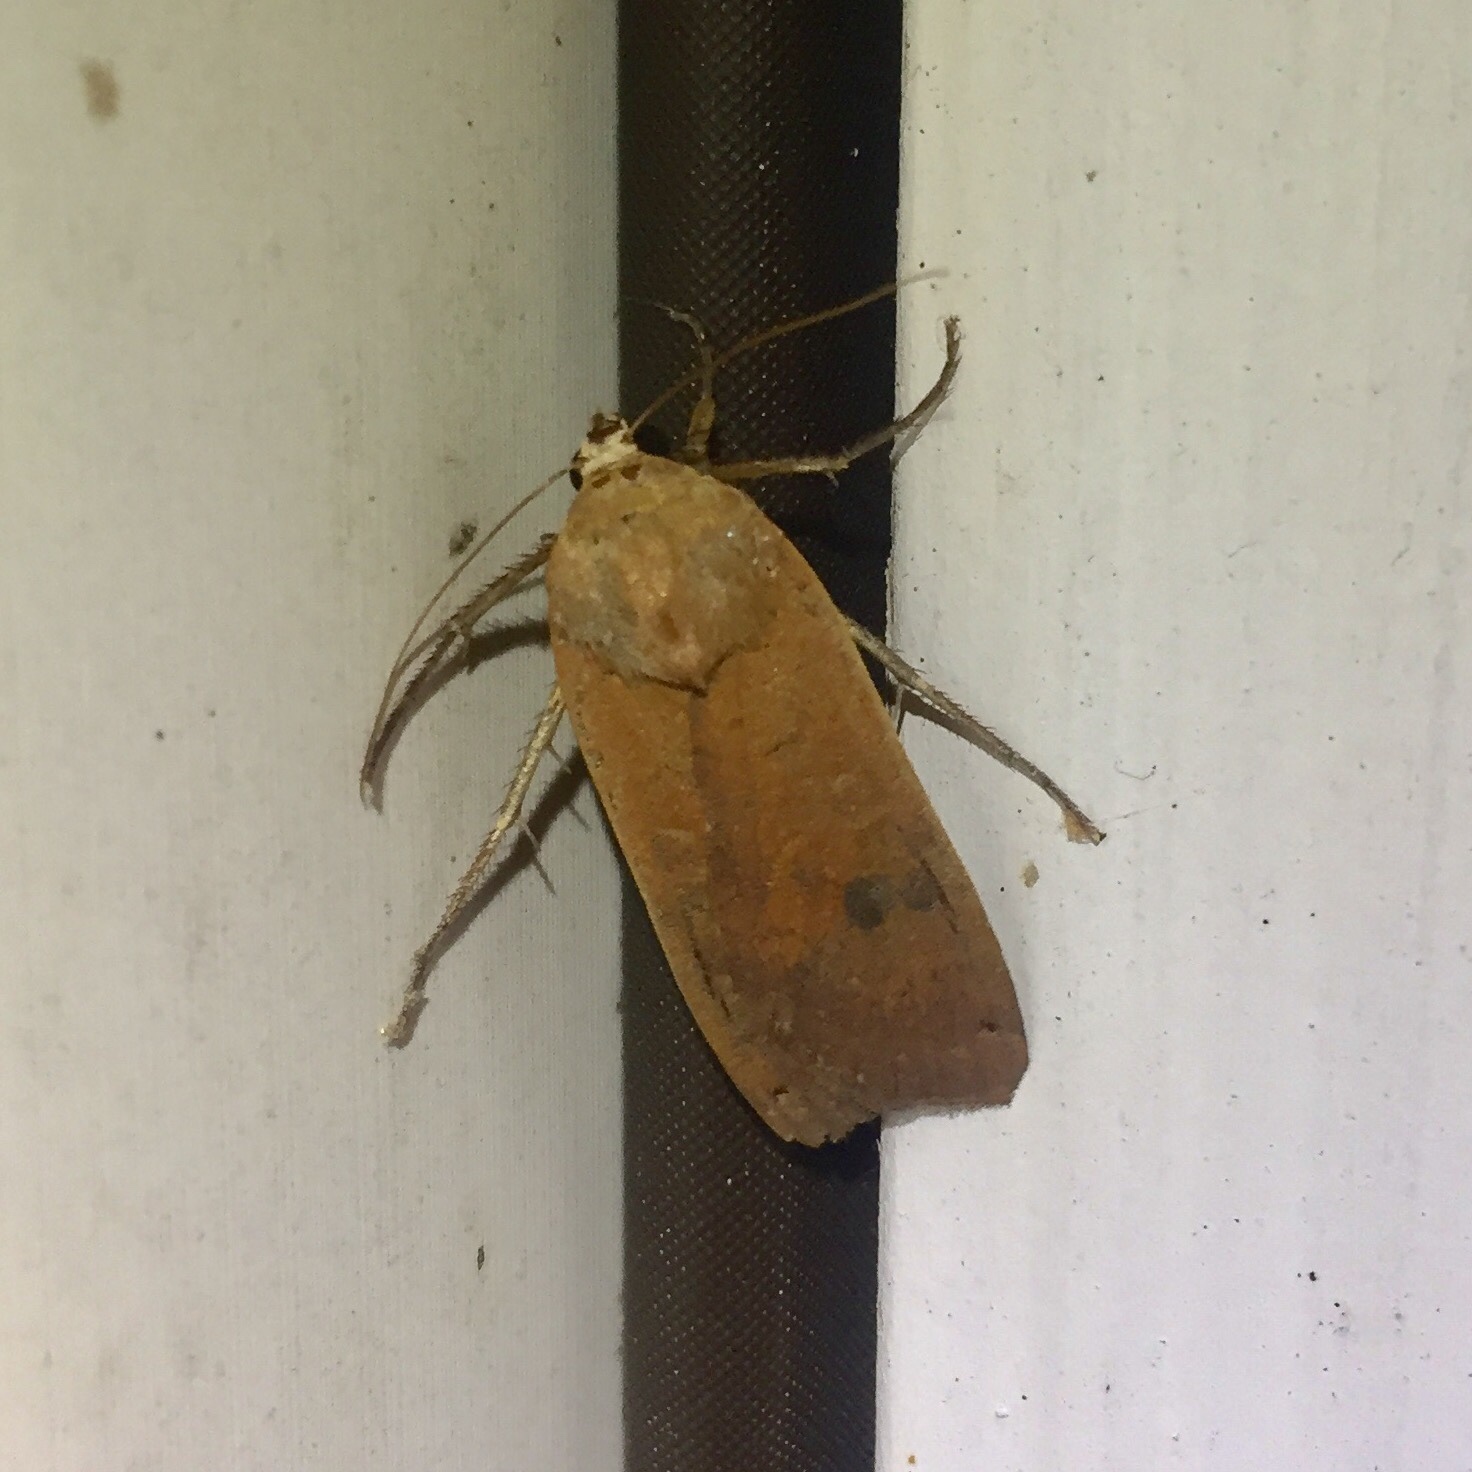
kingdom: Animalia
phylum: Arthropoda
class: Insecta
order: Lepidoptera
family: Noctuidae
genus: Noctua
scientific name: Noctua pronuba
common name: Large yellow underwing
